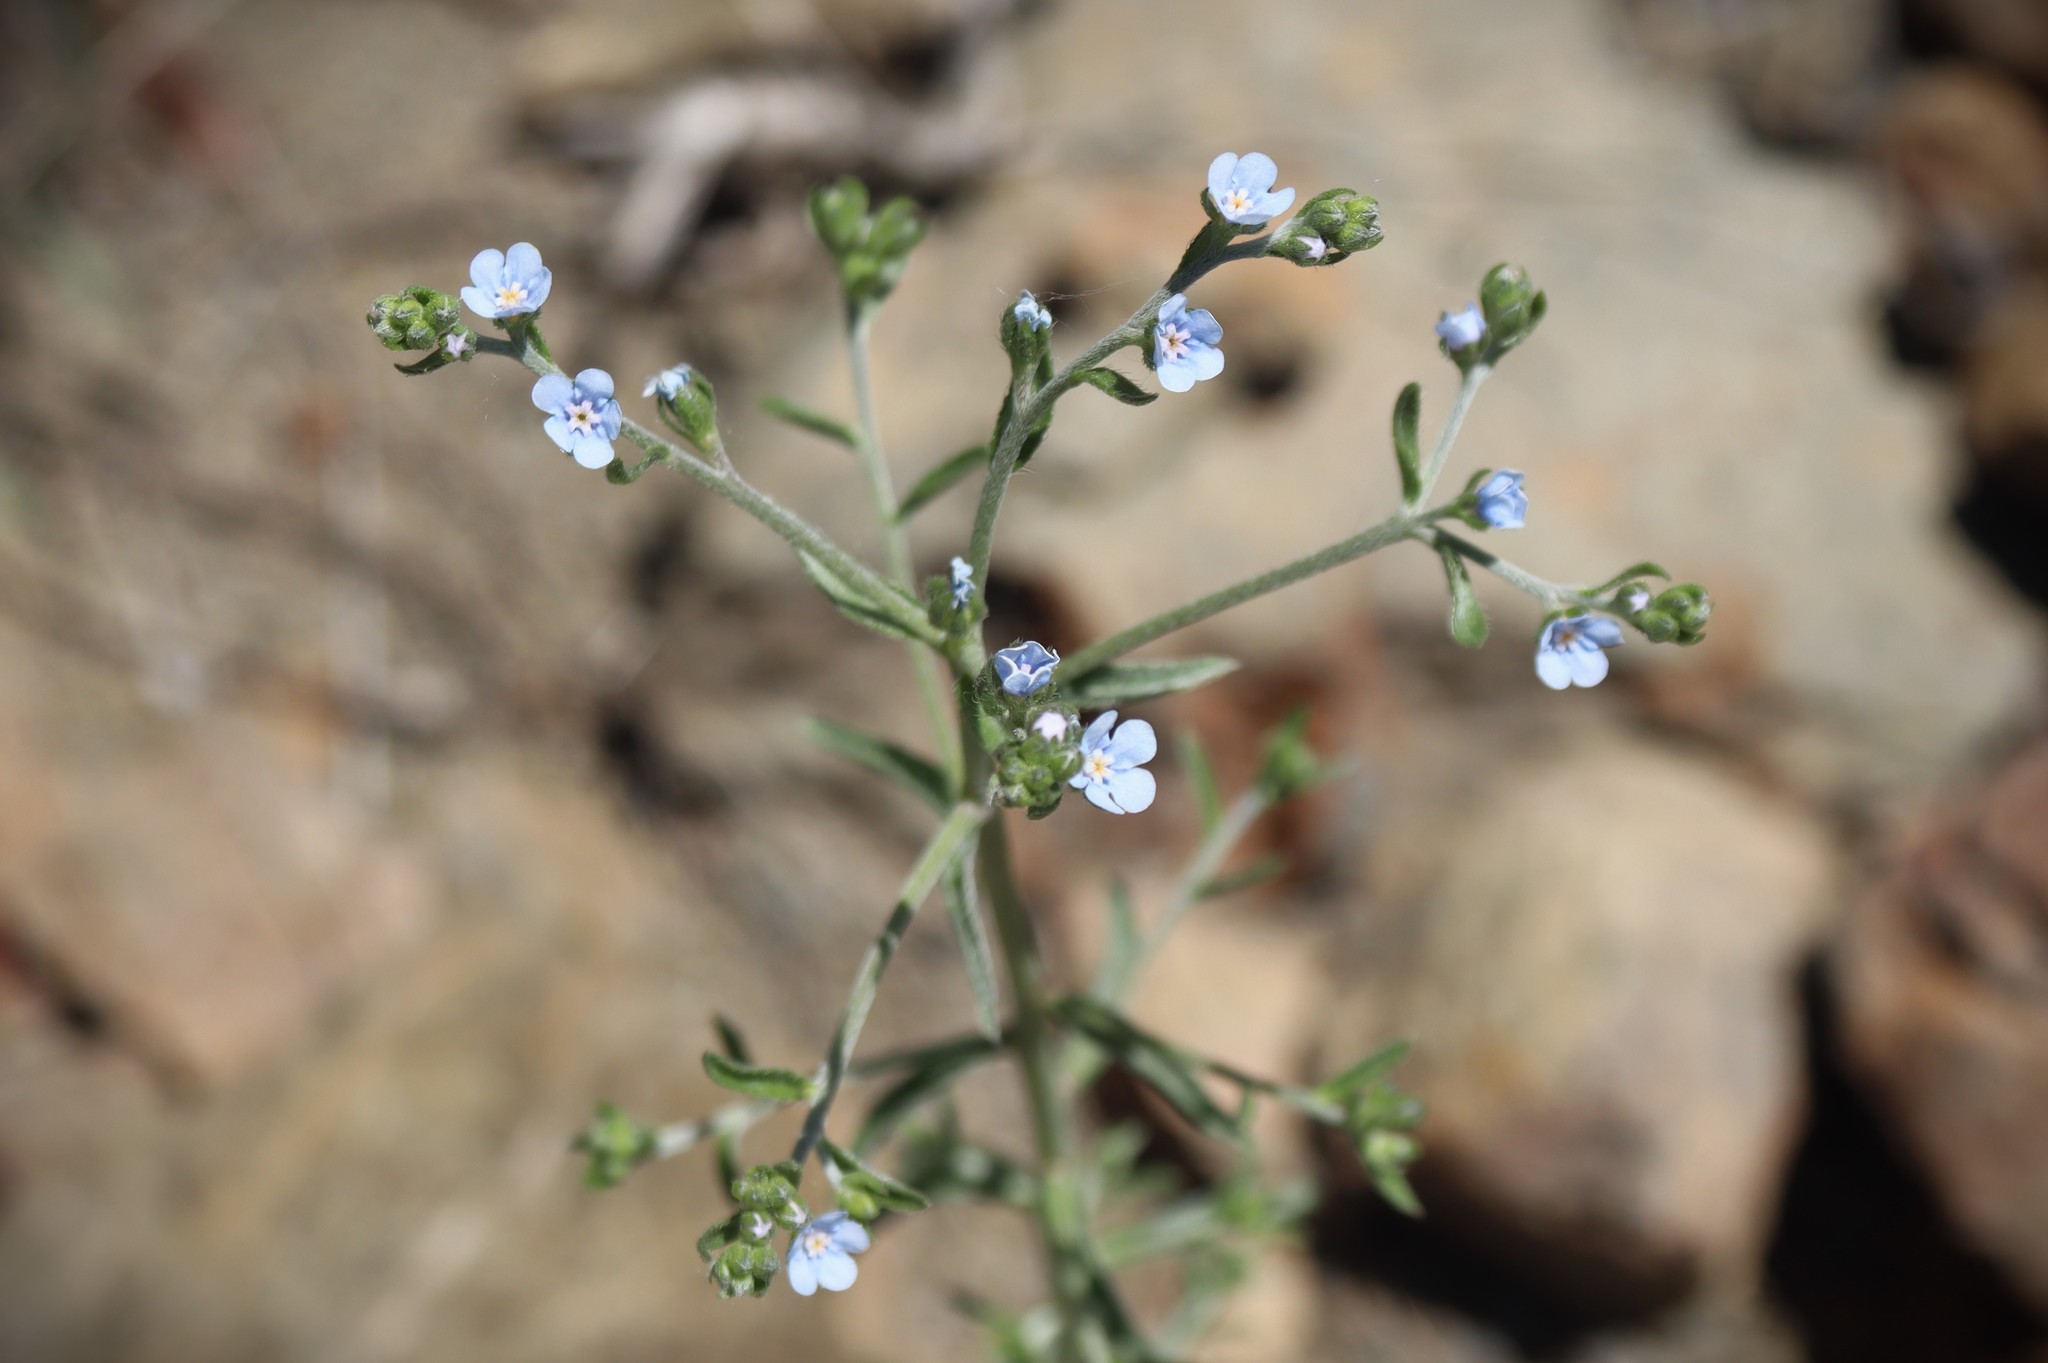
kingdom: Plantae
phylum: Tracheophyta
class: Magnoliopsida
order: Boraginales
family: Boraginaceae
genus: Lappula
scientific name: Lappula barbata
